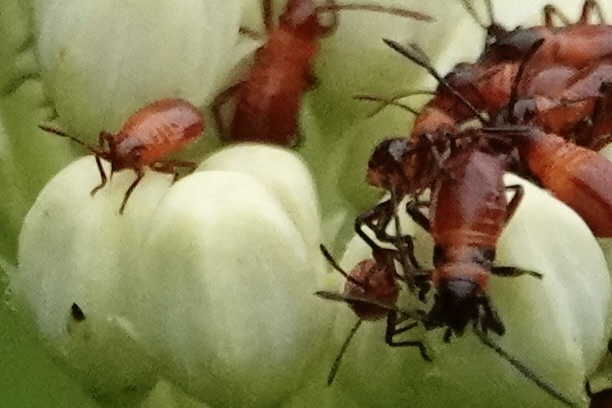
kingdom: Animalia
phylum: Arthropoda
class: Insecta
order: Hemiptera
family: Lygaeidae
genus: Oncopeltus
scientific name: Oncopeltus fasciatus
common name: Large milkweed bug
